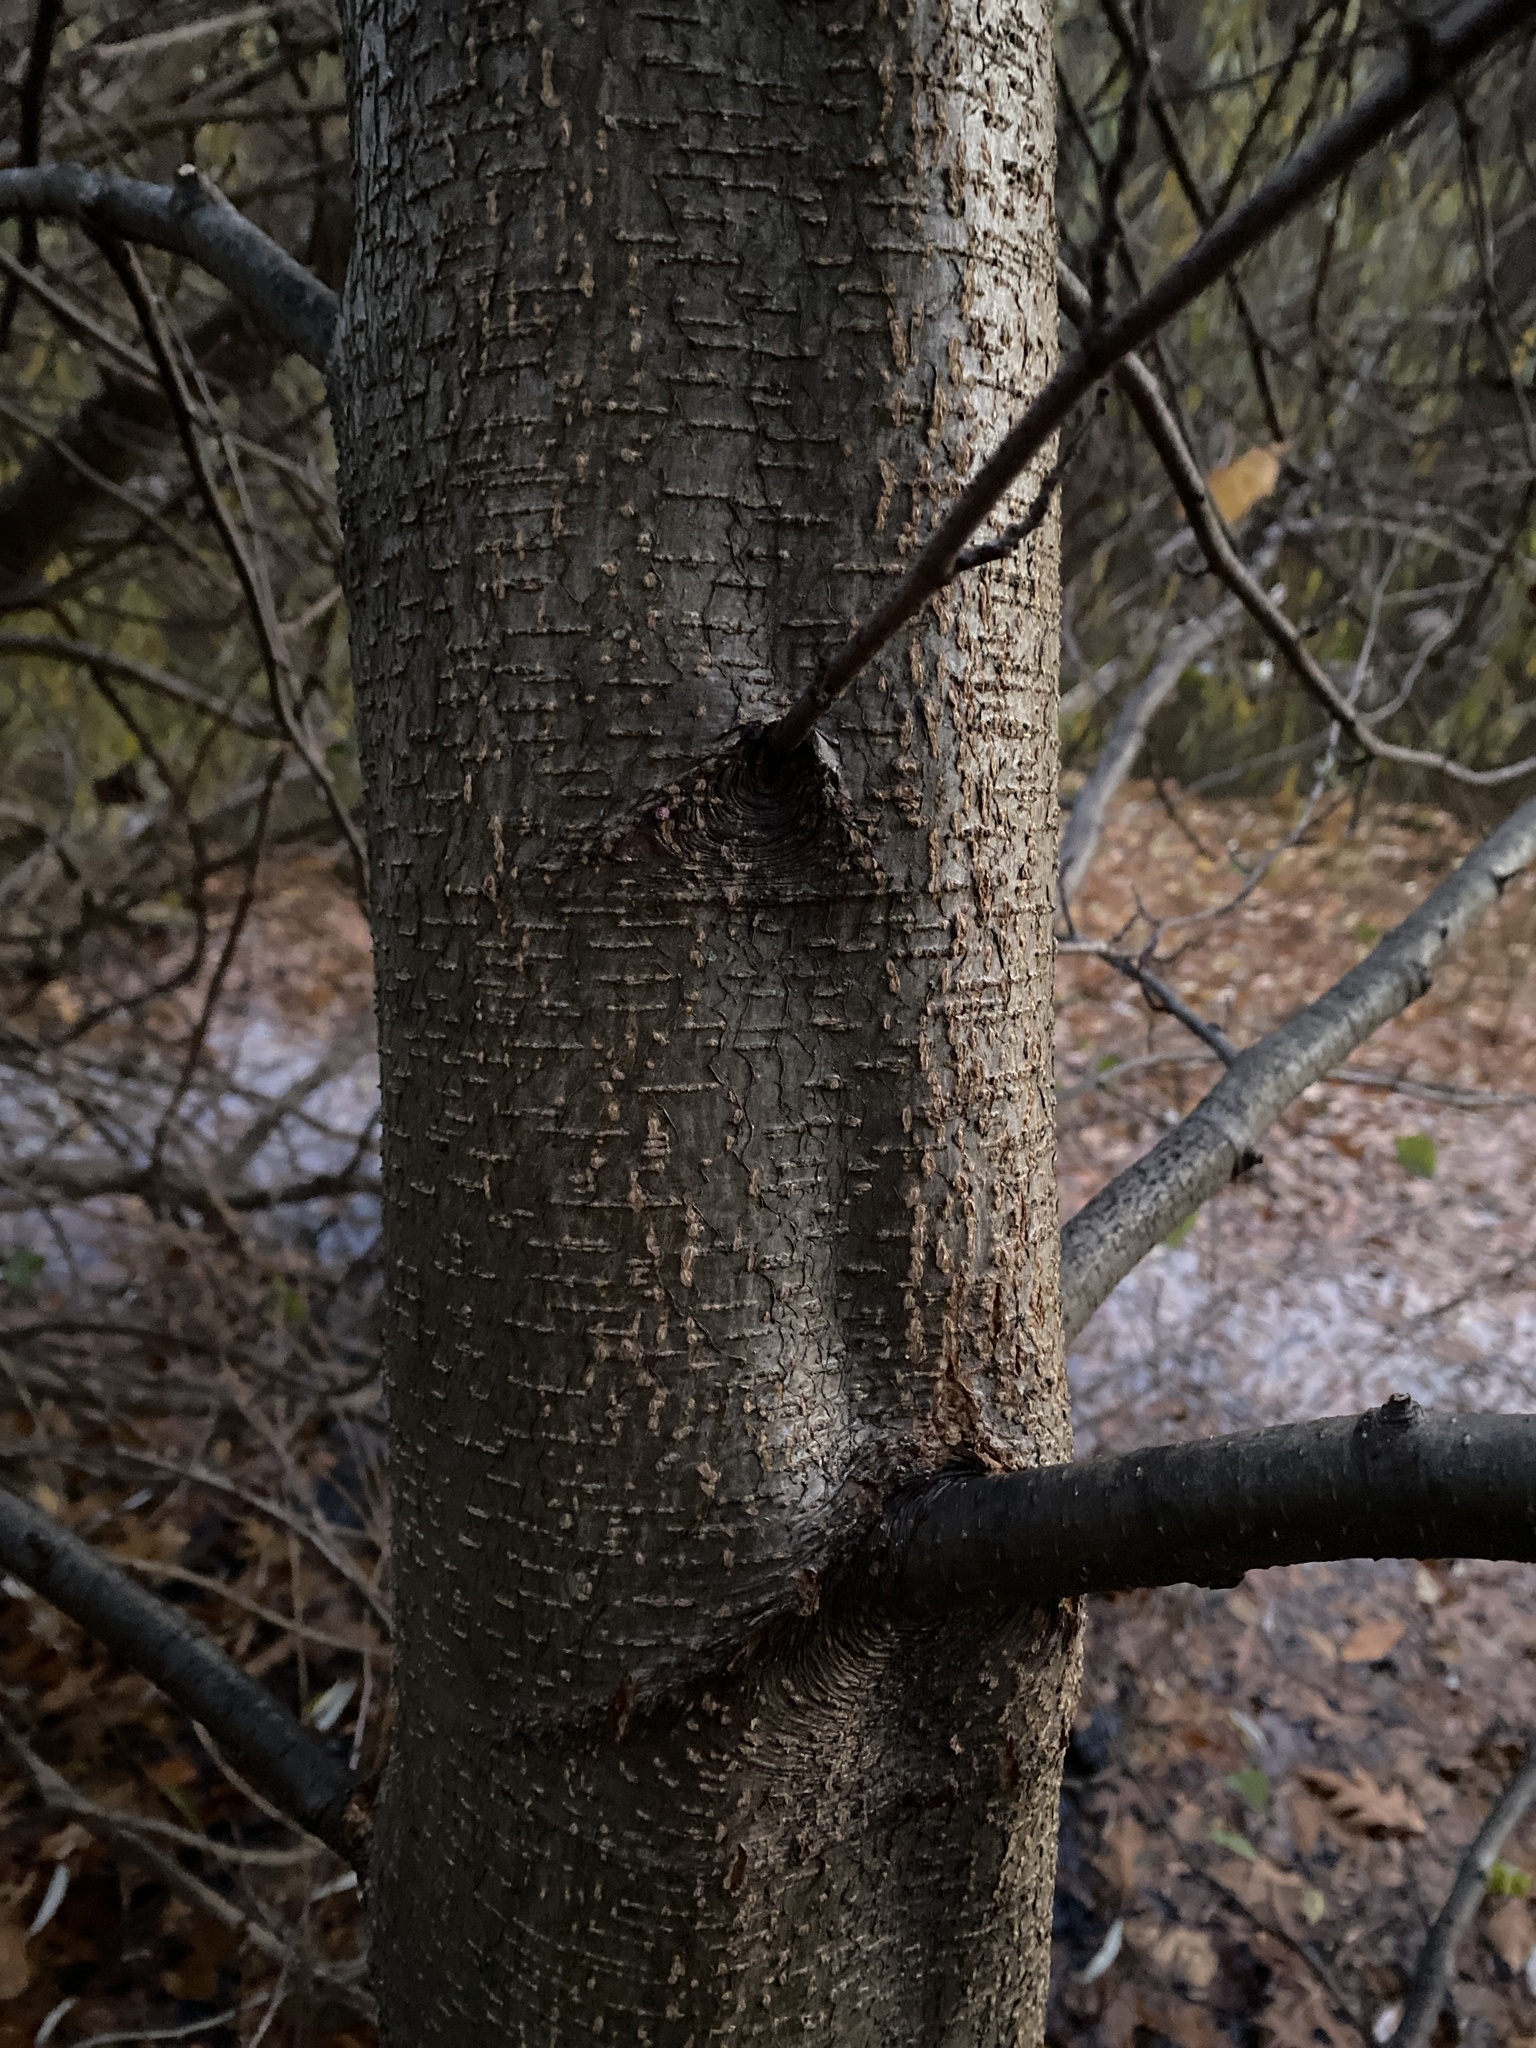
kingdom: Plantae
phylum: Tracheophyta
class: Magnoliopsida
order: Fagales
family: Betulaceae
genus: Alnus
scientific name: Alnus glutinosa
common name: Black alder
